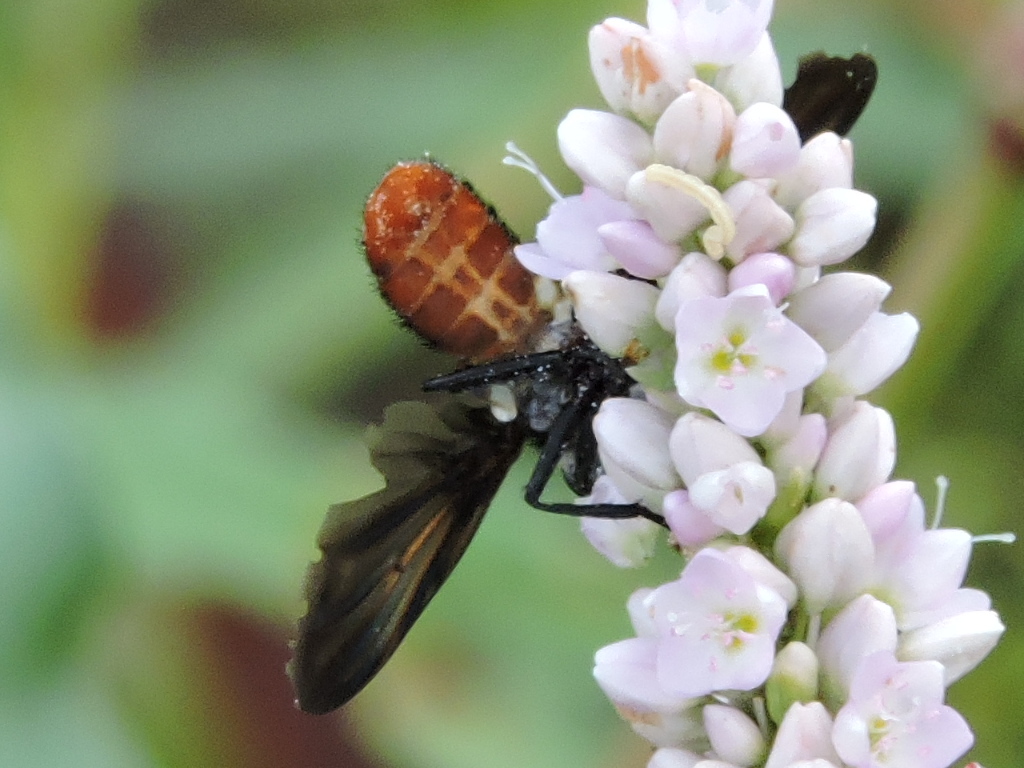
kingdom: Animalia
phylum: Arthropoda
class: Insecta
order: Diptera
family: Tachinidae
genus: Trichopoda
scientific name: Trichopoda lanipes
